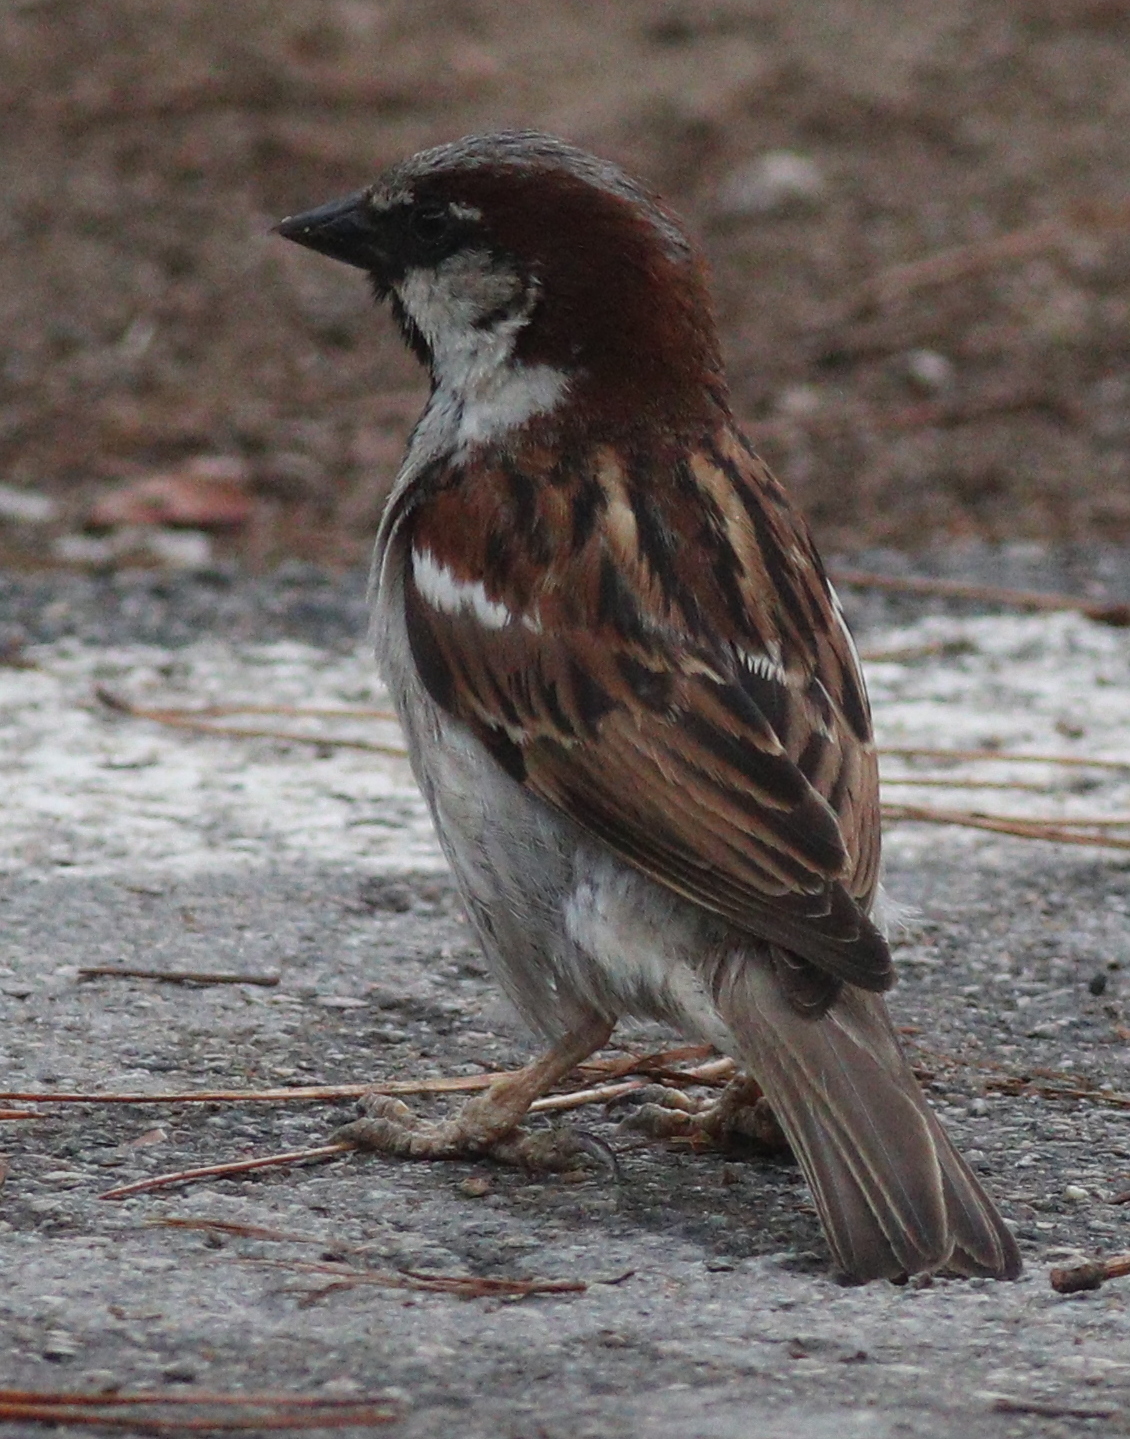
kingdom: Animalia
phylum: Chordata
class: Aves
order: Passeriformes
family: Passeridae
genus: Passer
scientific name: Passer domesticus
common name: House sparrow
